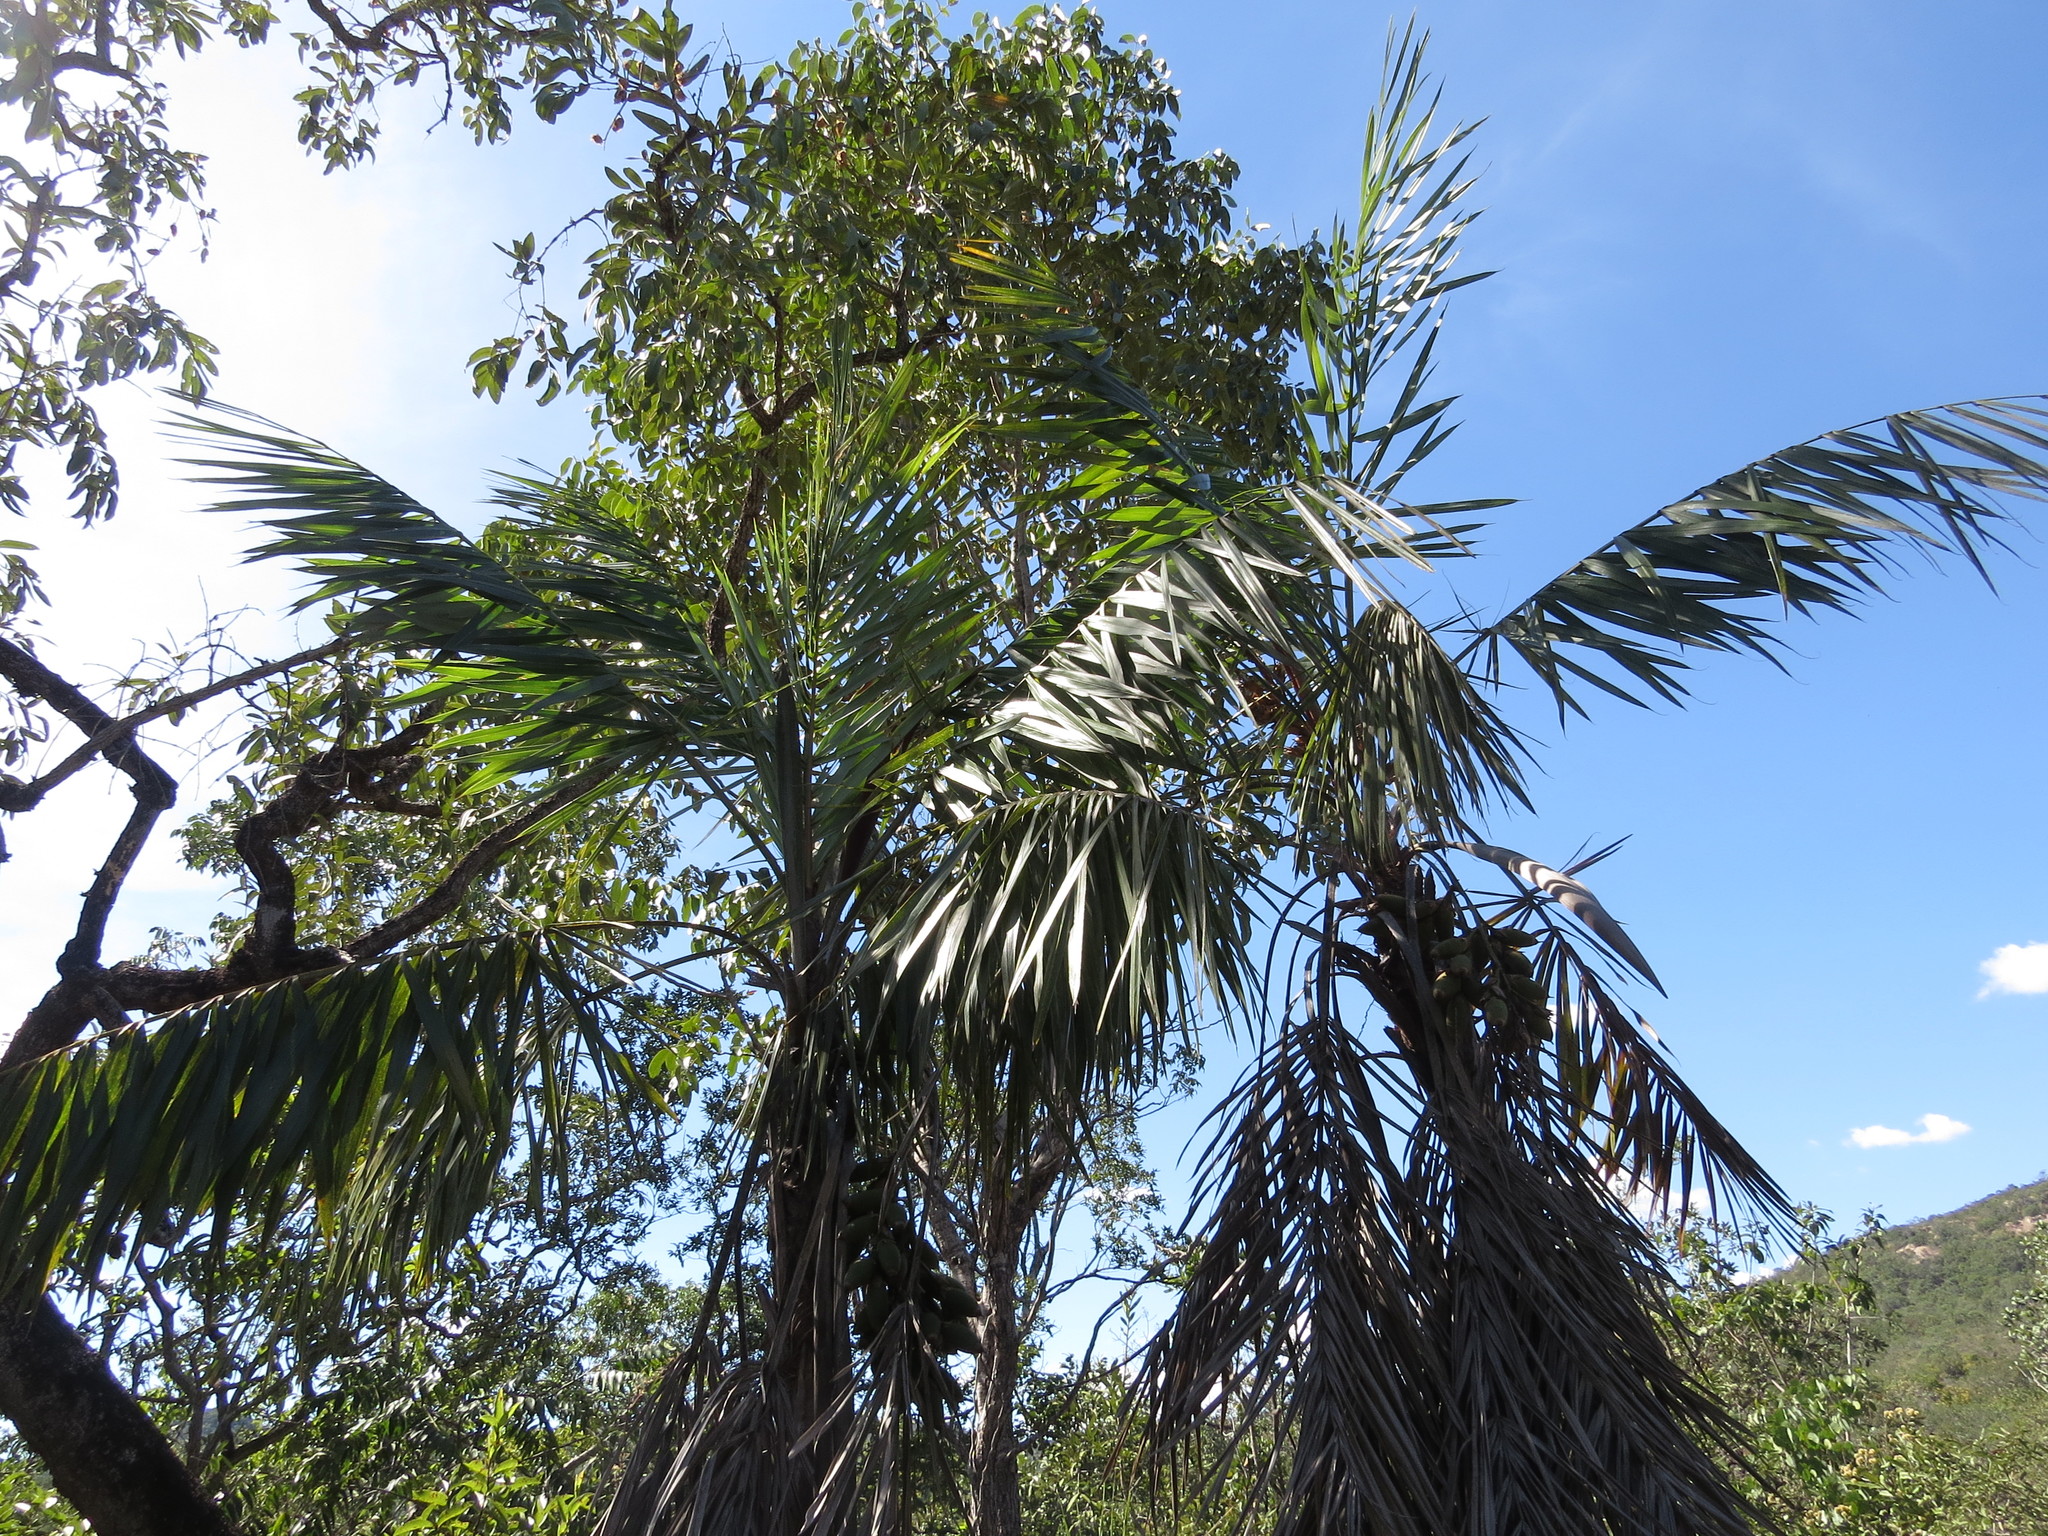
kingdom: Plantae
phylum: Tracheophyta
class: Liliopsida
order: Arecales
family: Arecaceae
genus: Syagrus
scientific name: Syagrus deflexa
